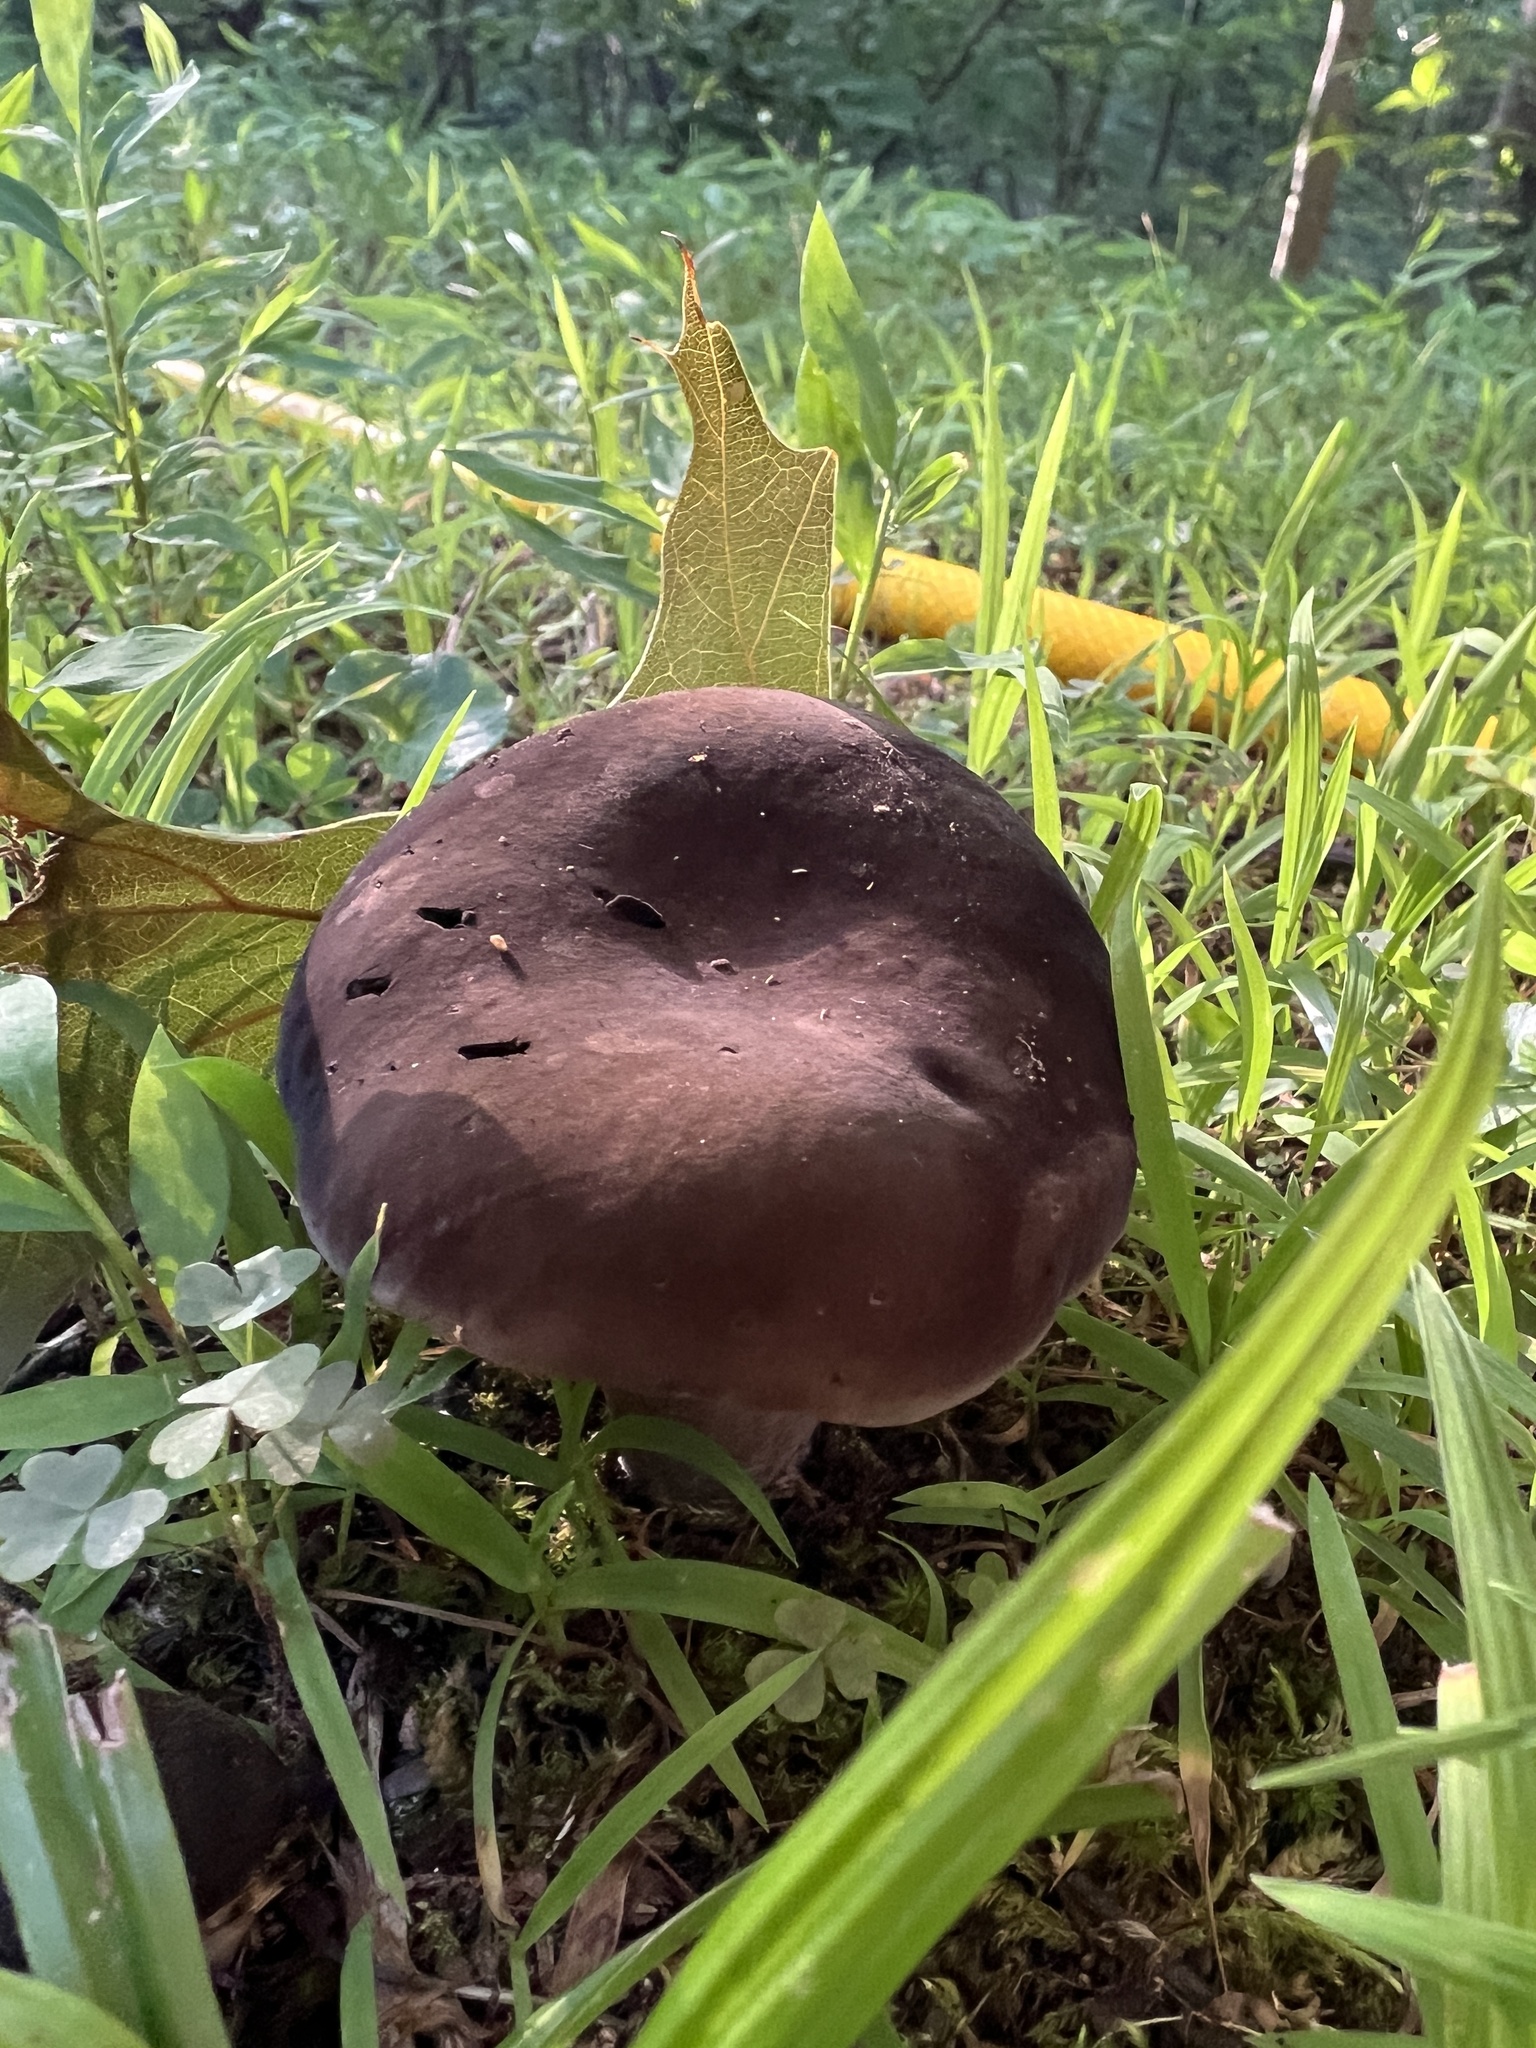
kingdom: Fungi
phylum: Basidiomycota
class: Agaricomycetes
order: Boletales
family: Boletaceae
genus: Tylopilus
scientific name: Tylopilus alboater
